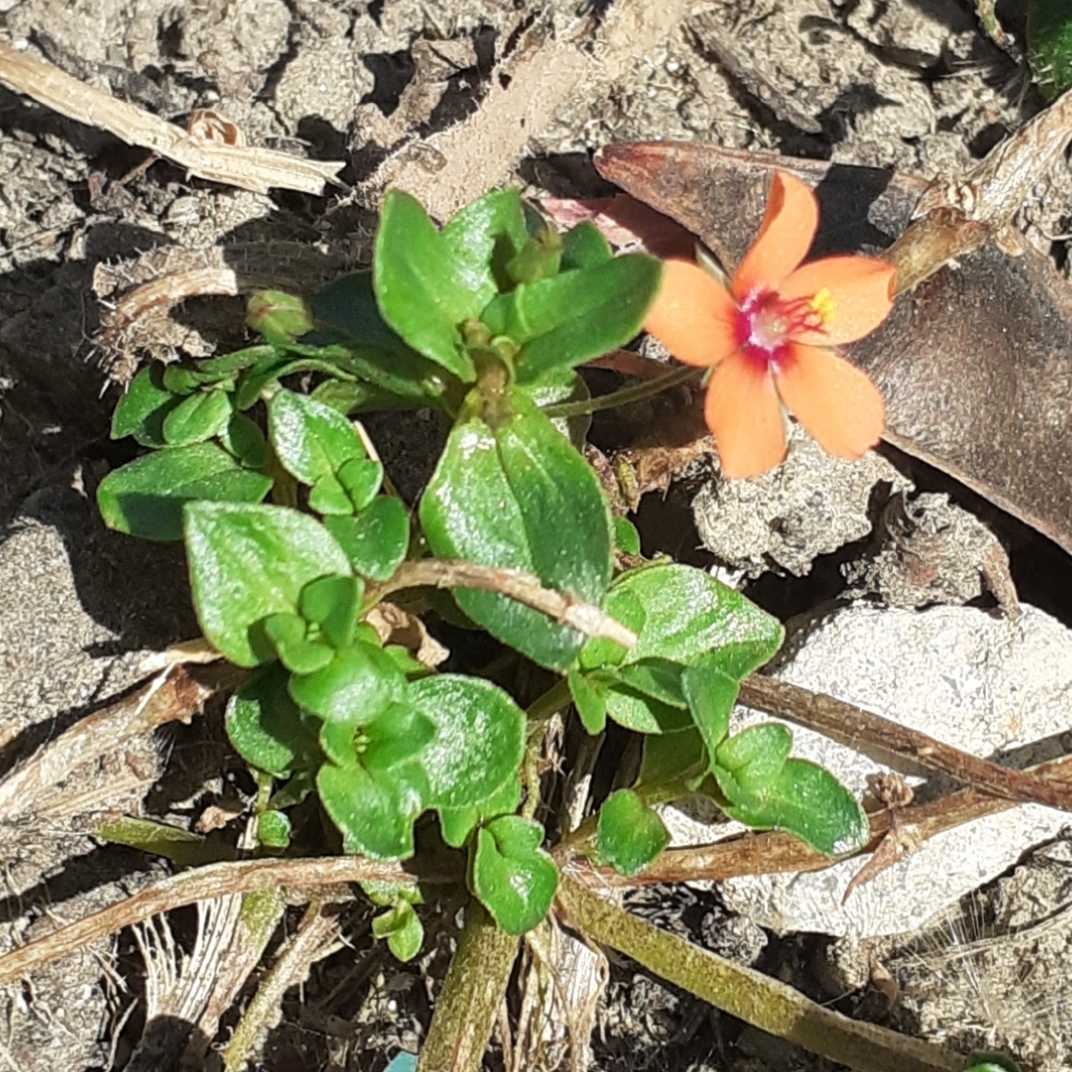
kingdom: Plantae
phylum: Tracheophyta
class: Magnoliopsida
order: Ericales
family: Primulaceae
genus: Lysimachia
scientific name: Lysimachia arvensis
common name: Scarlet pimpernel
